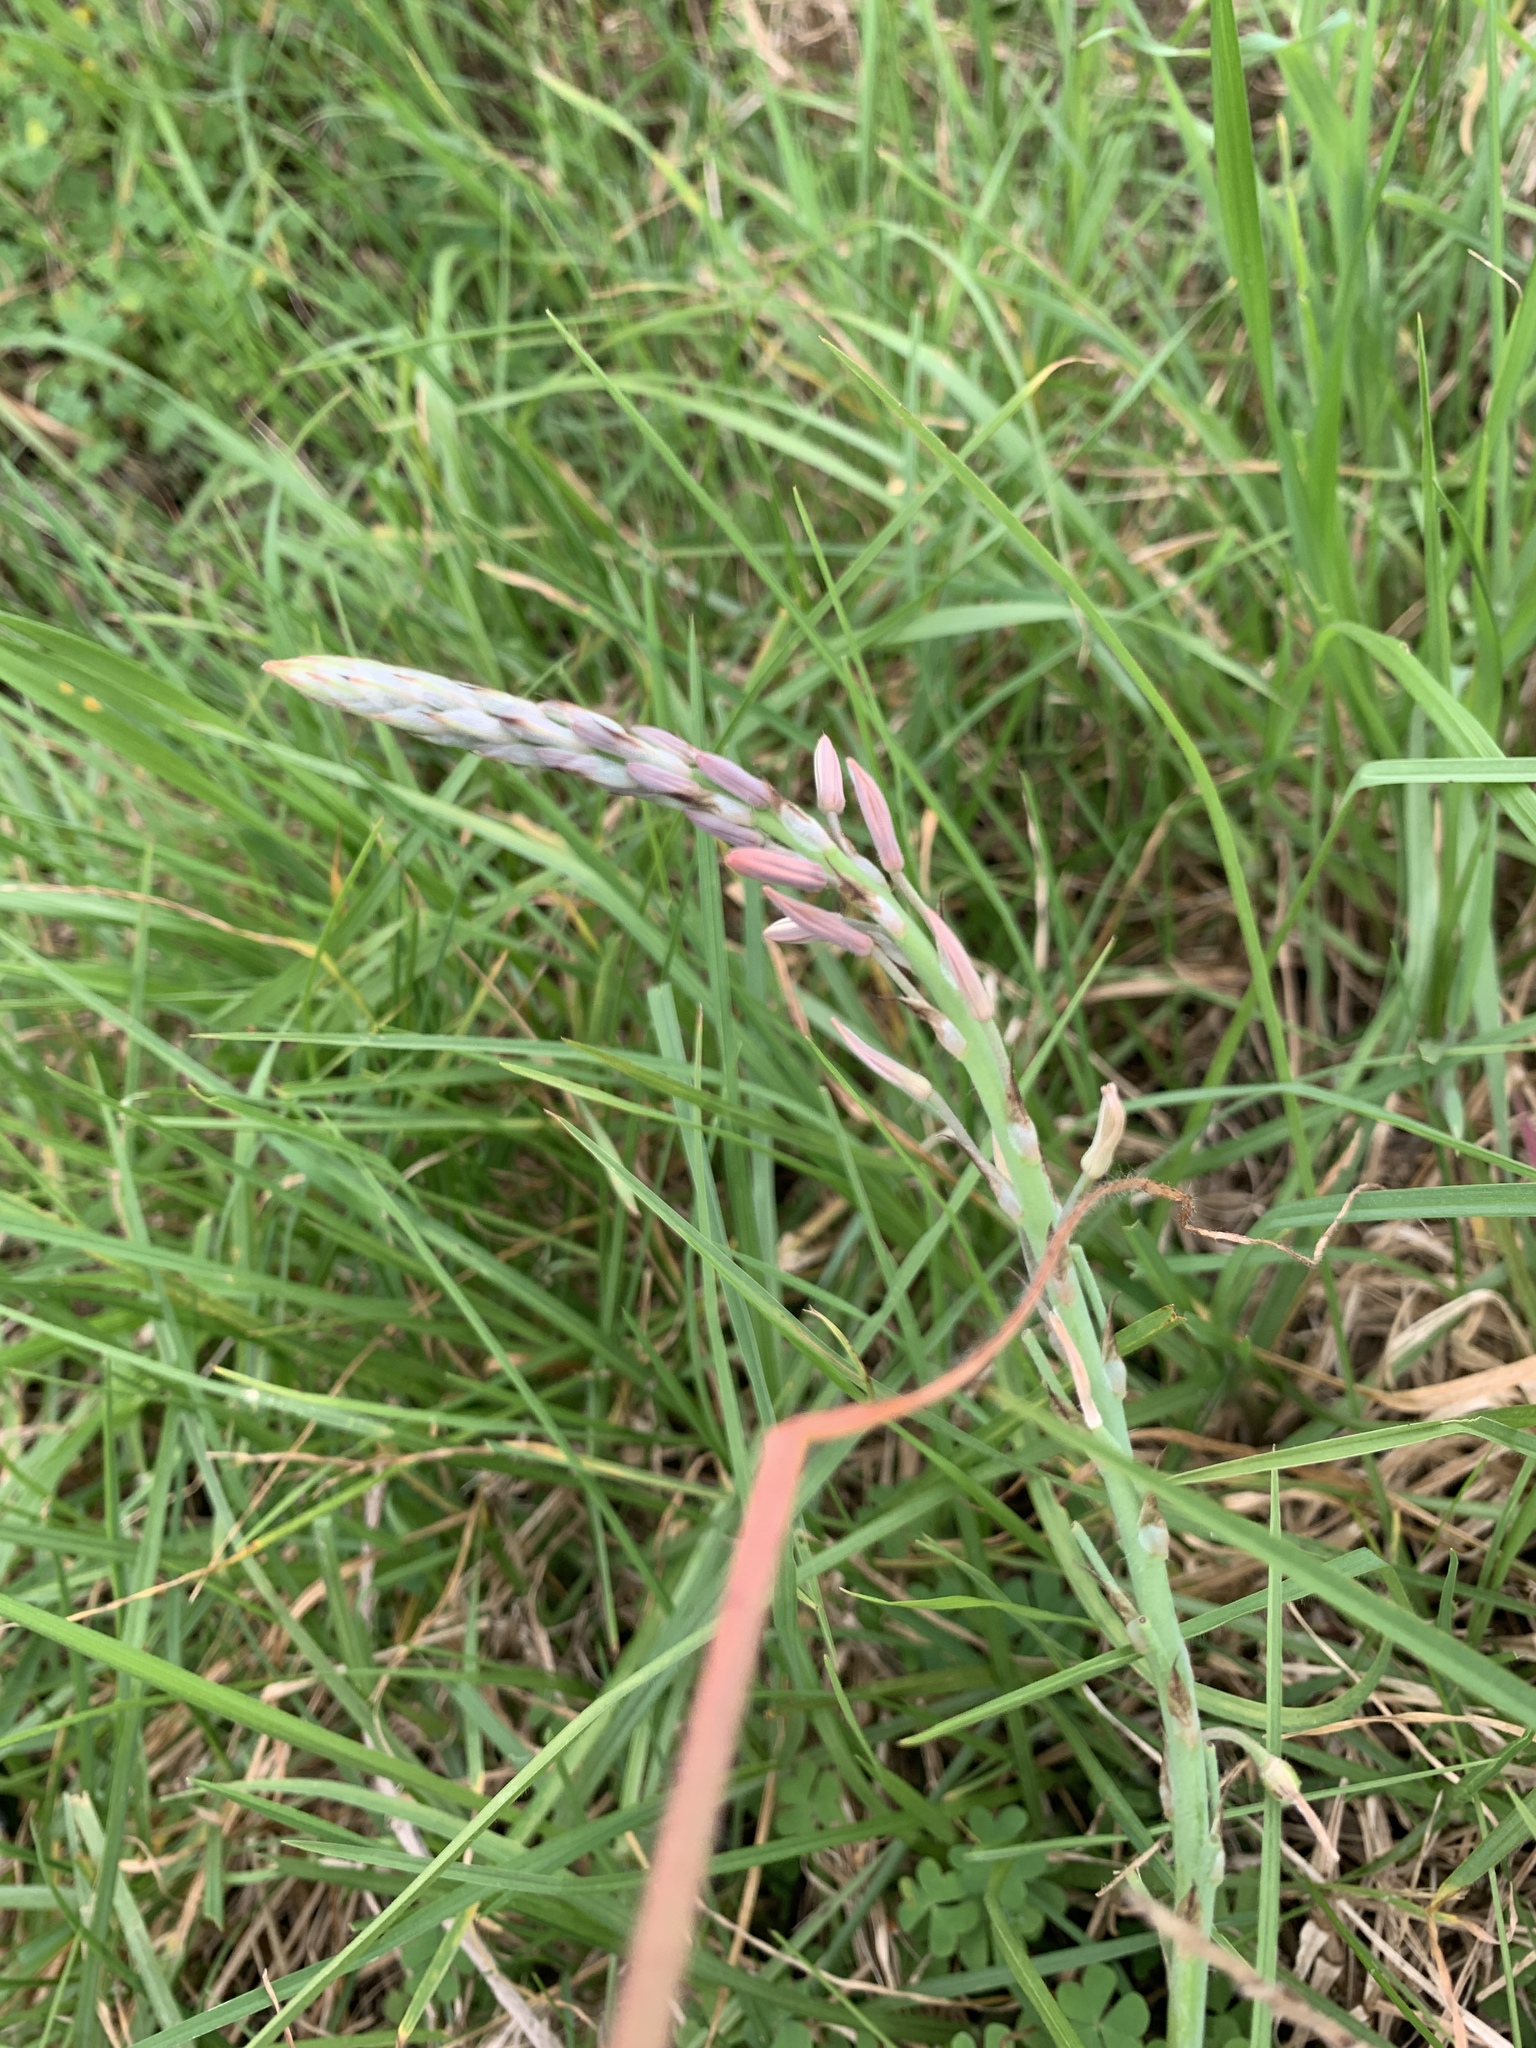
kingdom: Plantae
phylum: Tracheophyta
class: Liliopsida
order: Asparagales
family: Asphodelaceae
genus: Trachyandra
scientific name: Trachyandra ciliata
